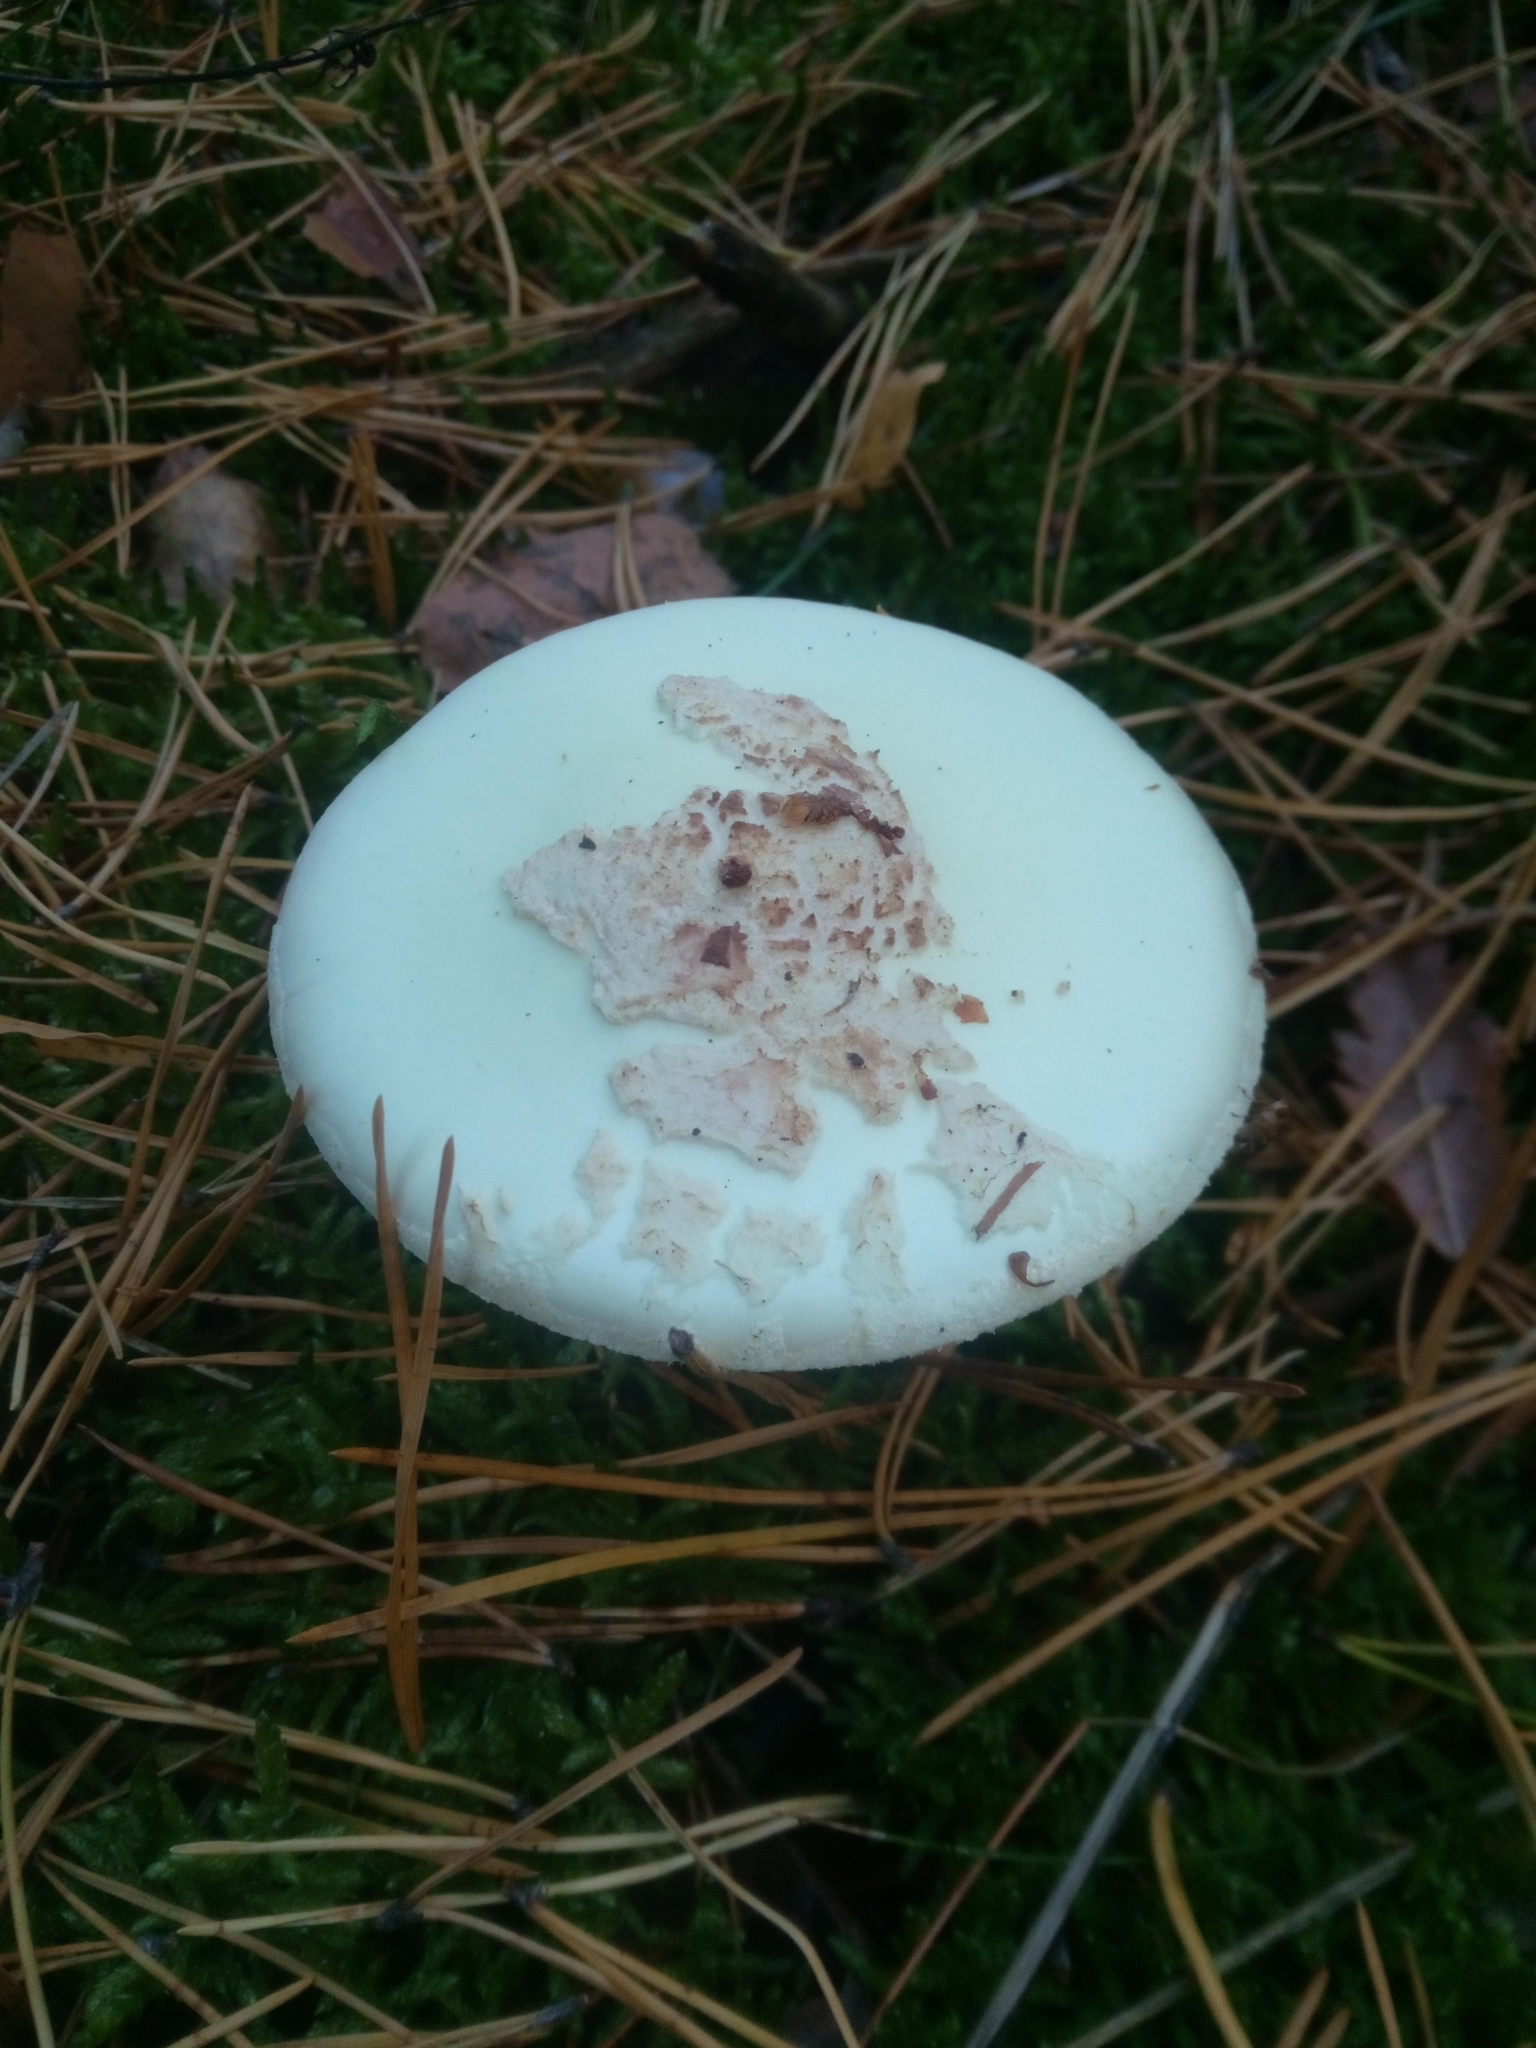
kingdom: Fungi
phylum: Basidiomycota
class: Agaricomycetes
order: Agaricales
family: Amanitaceae
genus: Amanita
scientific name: Amanita citrina
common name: False death-cap
